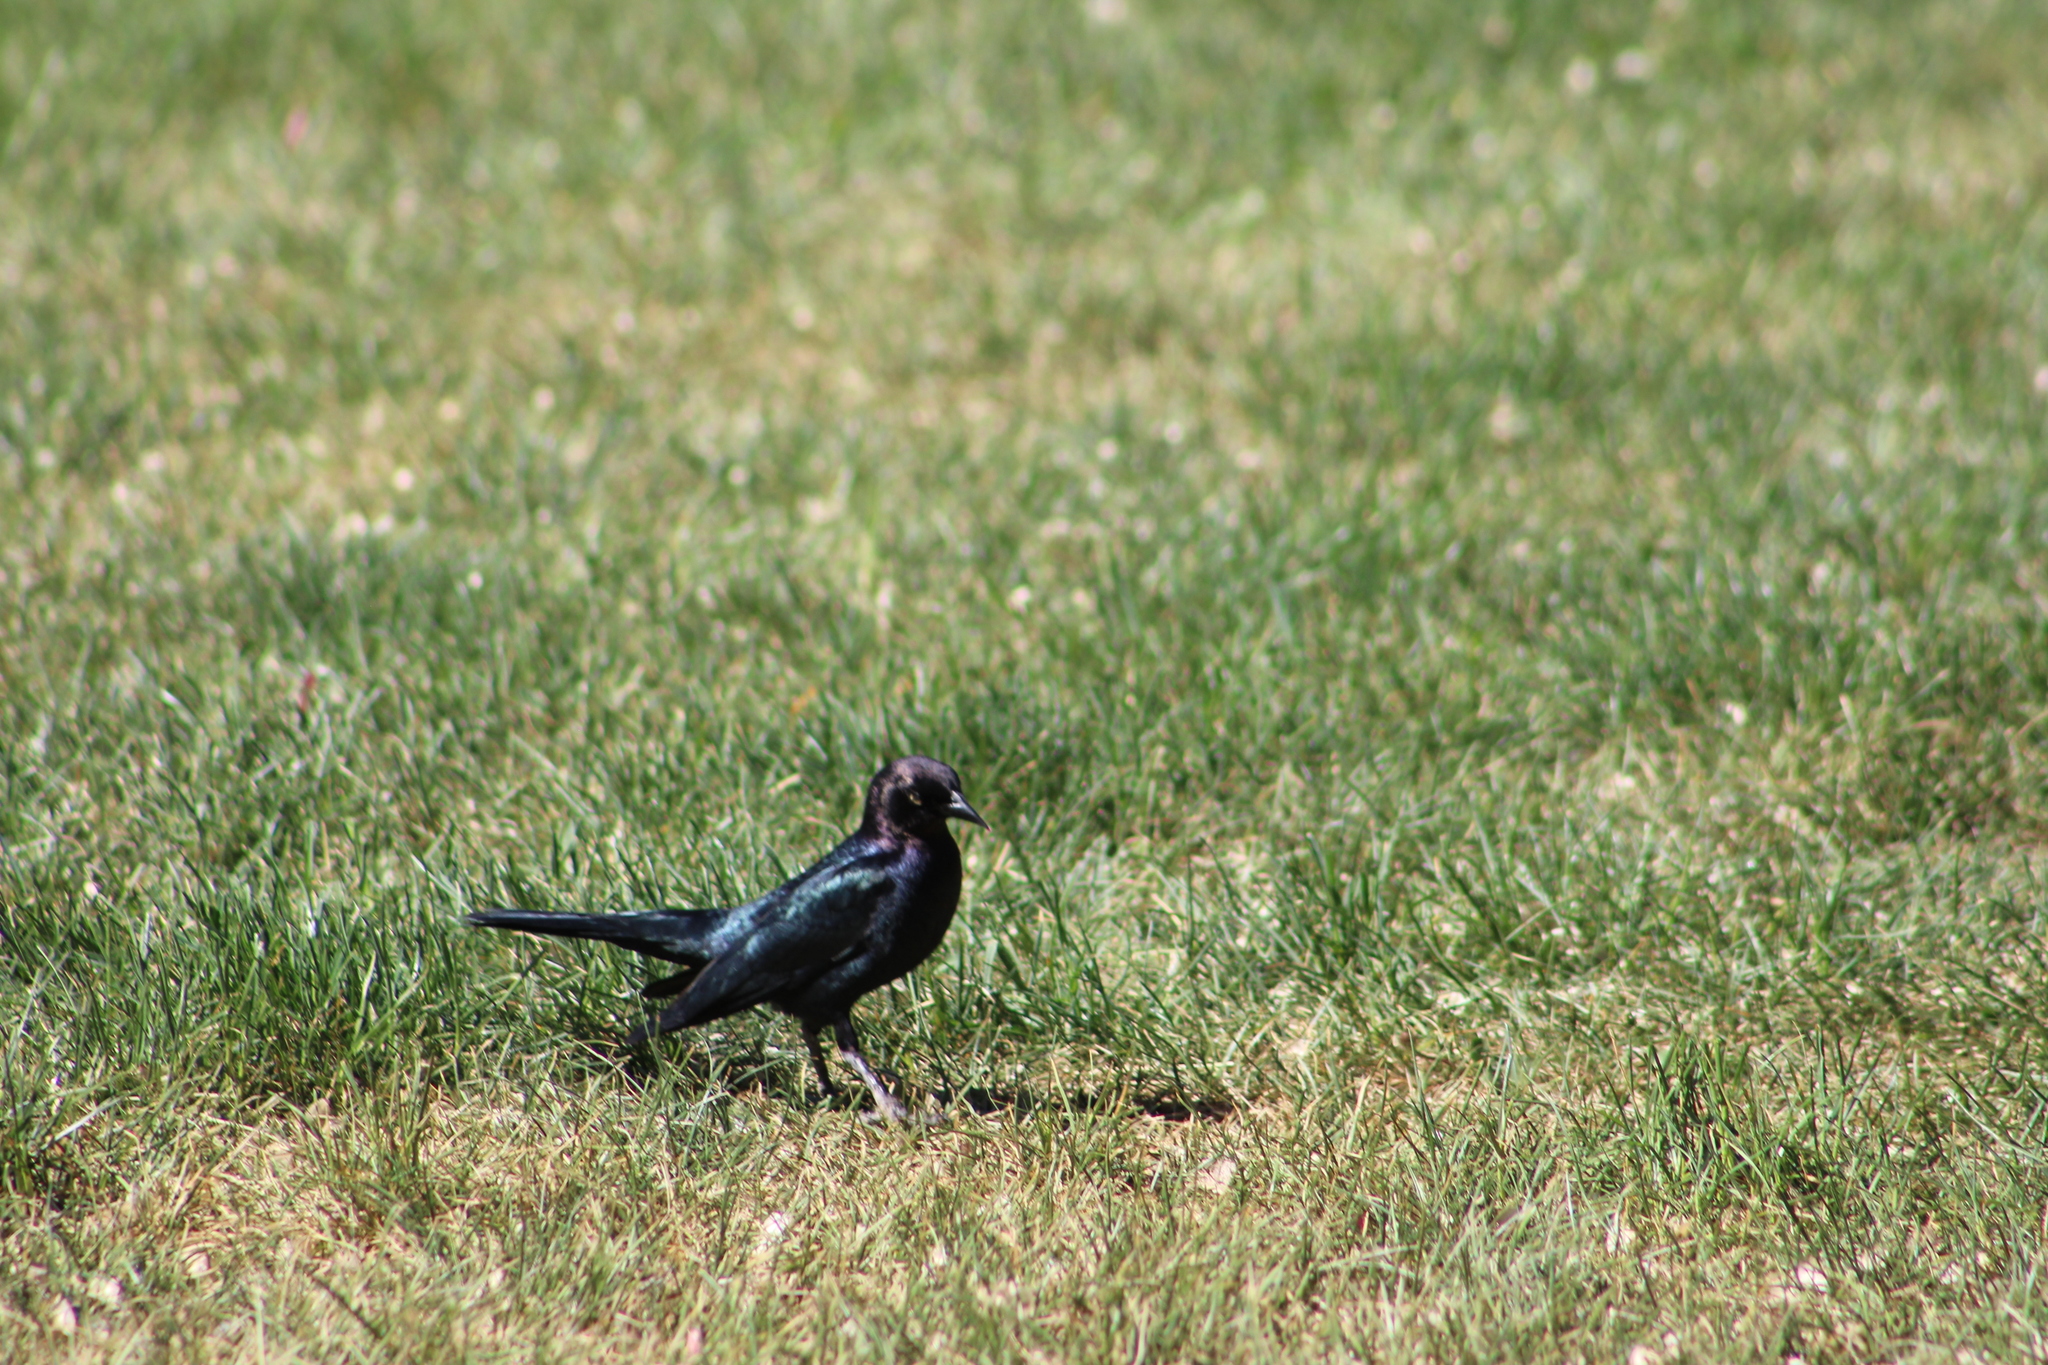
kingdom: Animalia
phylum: Chordata
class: Aves
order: Passeriformes
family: Icteridae
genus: Euphagus
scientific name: Euphagus cyanocephalus
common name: Brewer's blackbird
